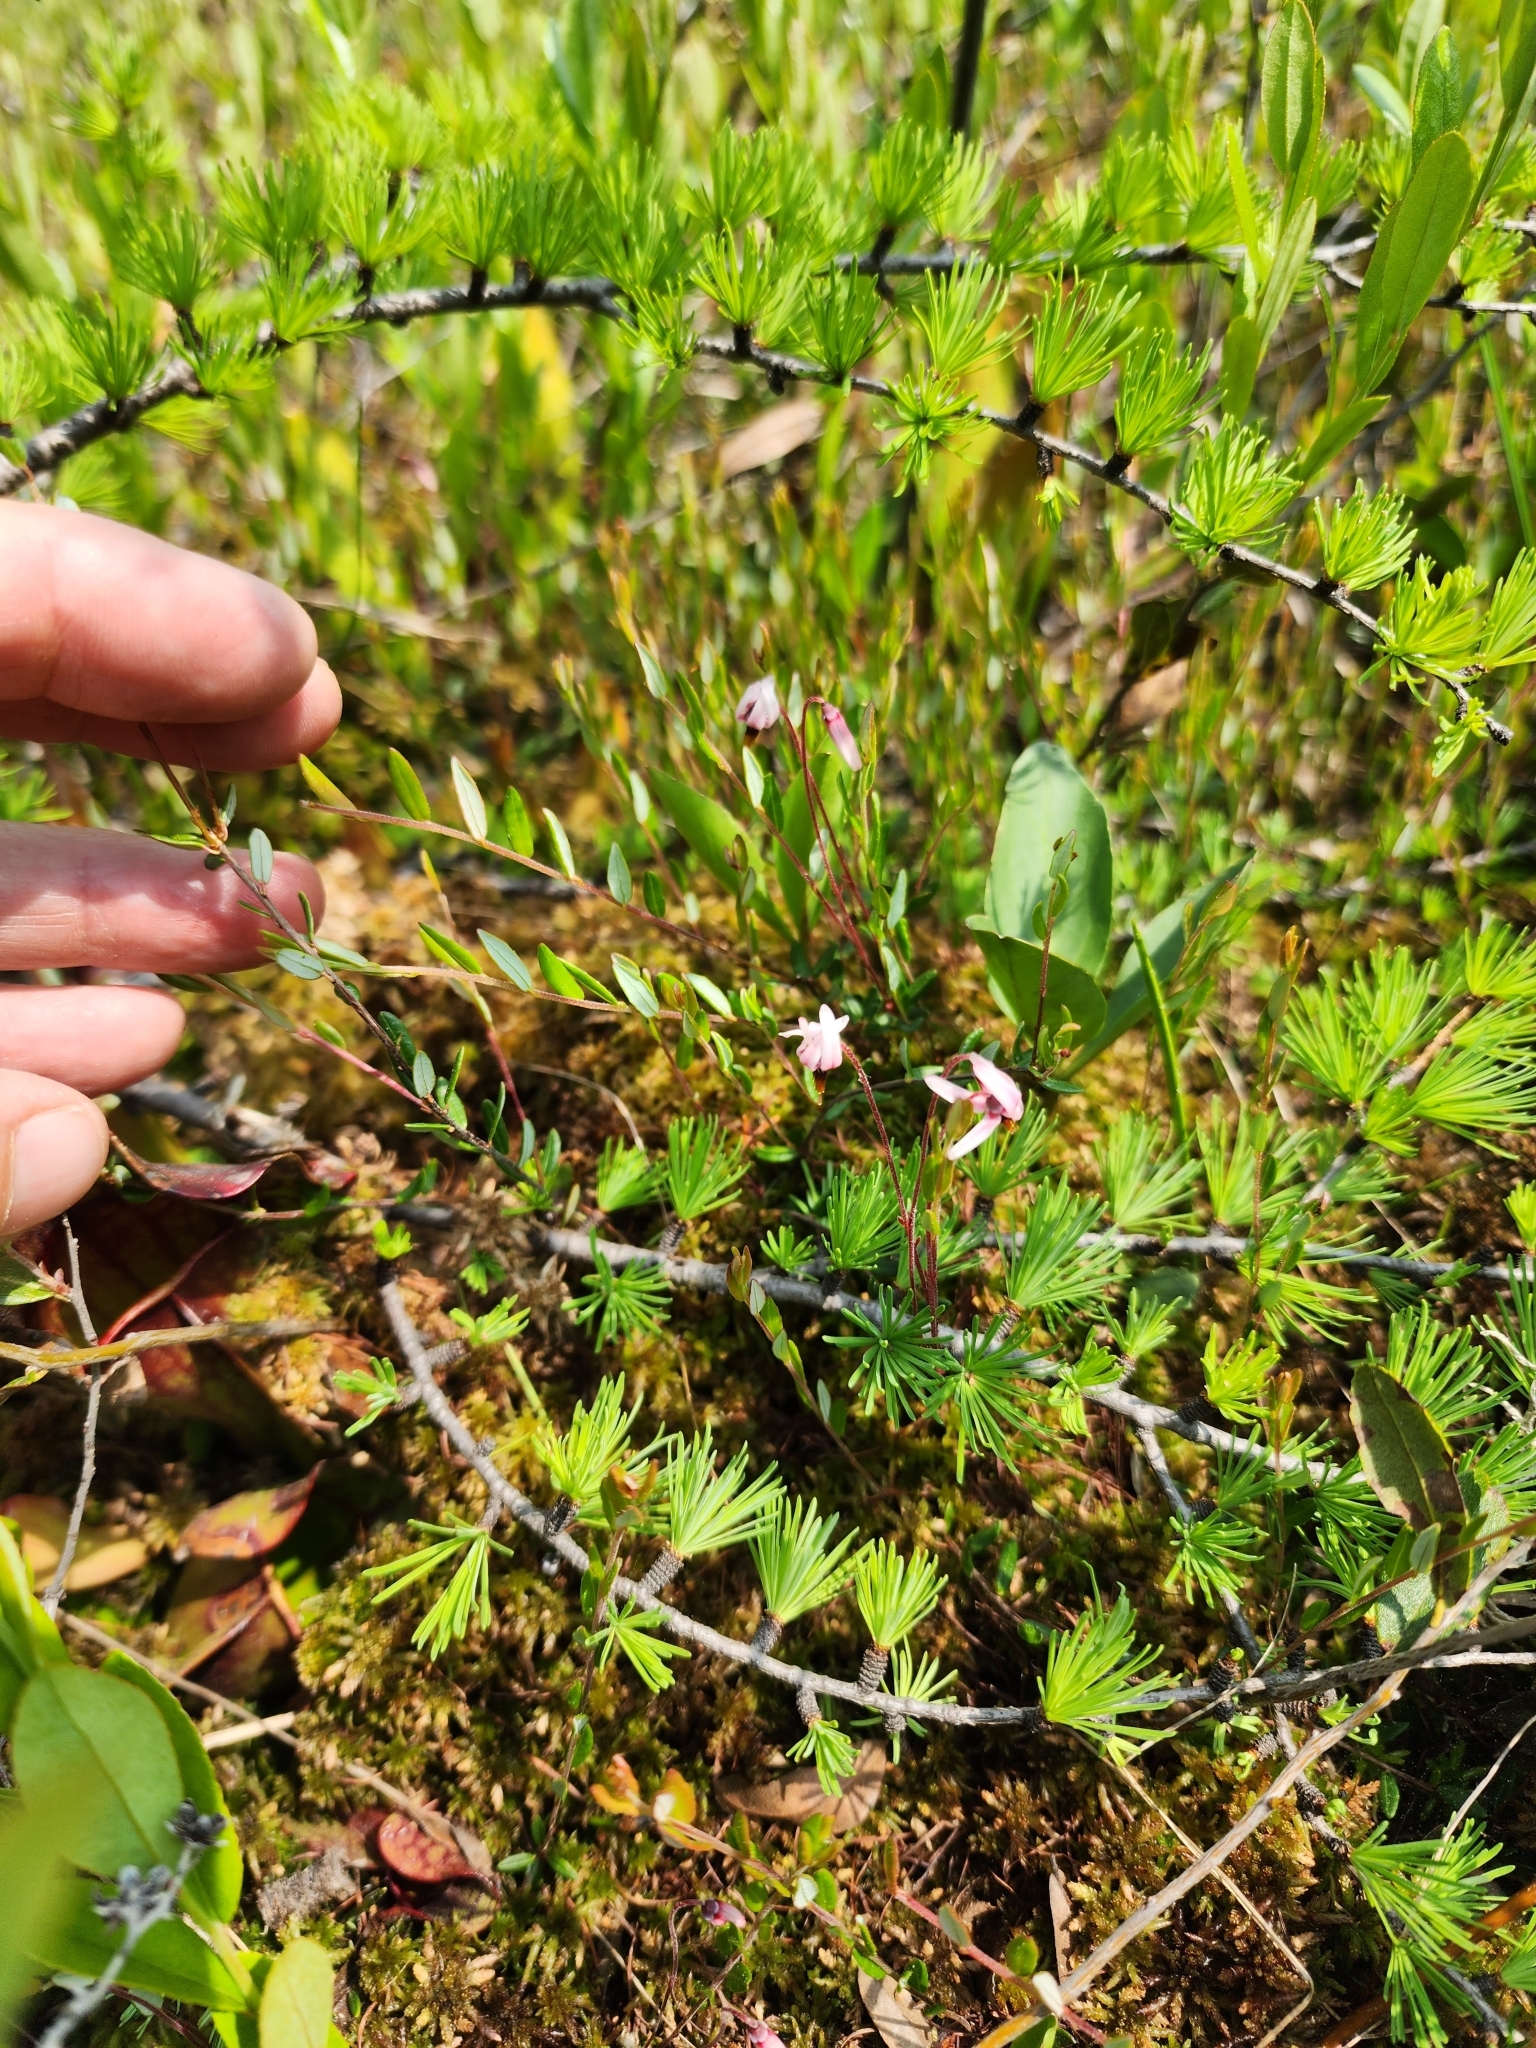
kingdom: Plantae
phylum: Tracheophyta
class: Magnoliopsida
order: Ericales
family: Ericaceae
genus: Vaccinium
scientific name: Vaccinium oxycoccos
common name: Cranberry
